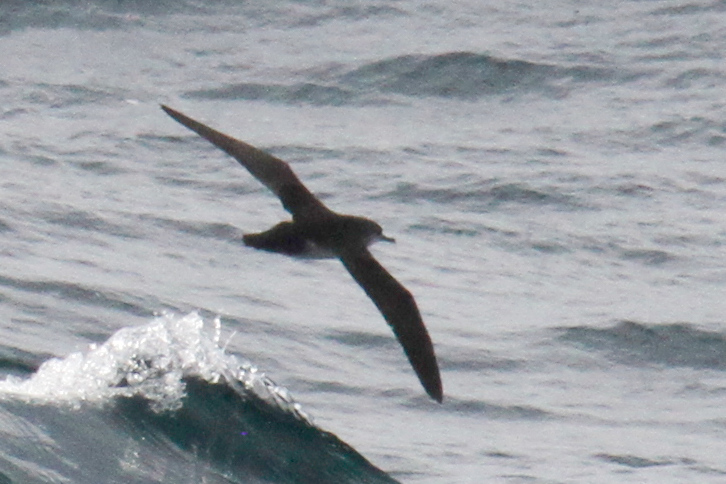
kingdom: Animalia
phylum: Chordata
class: Aves
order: Procellariiformes
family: Procellariidae
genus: Puffinus
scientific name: Puffinus opisthomelas
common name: Black-vented shearwater
